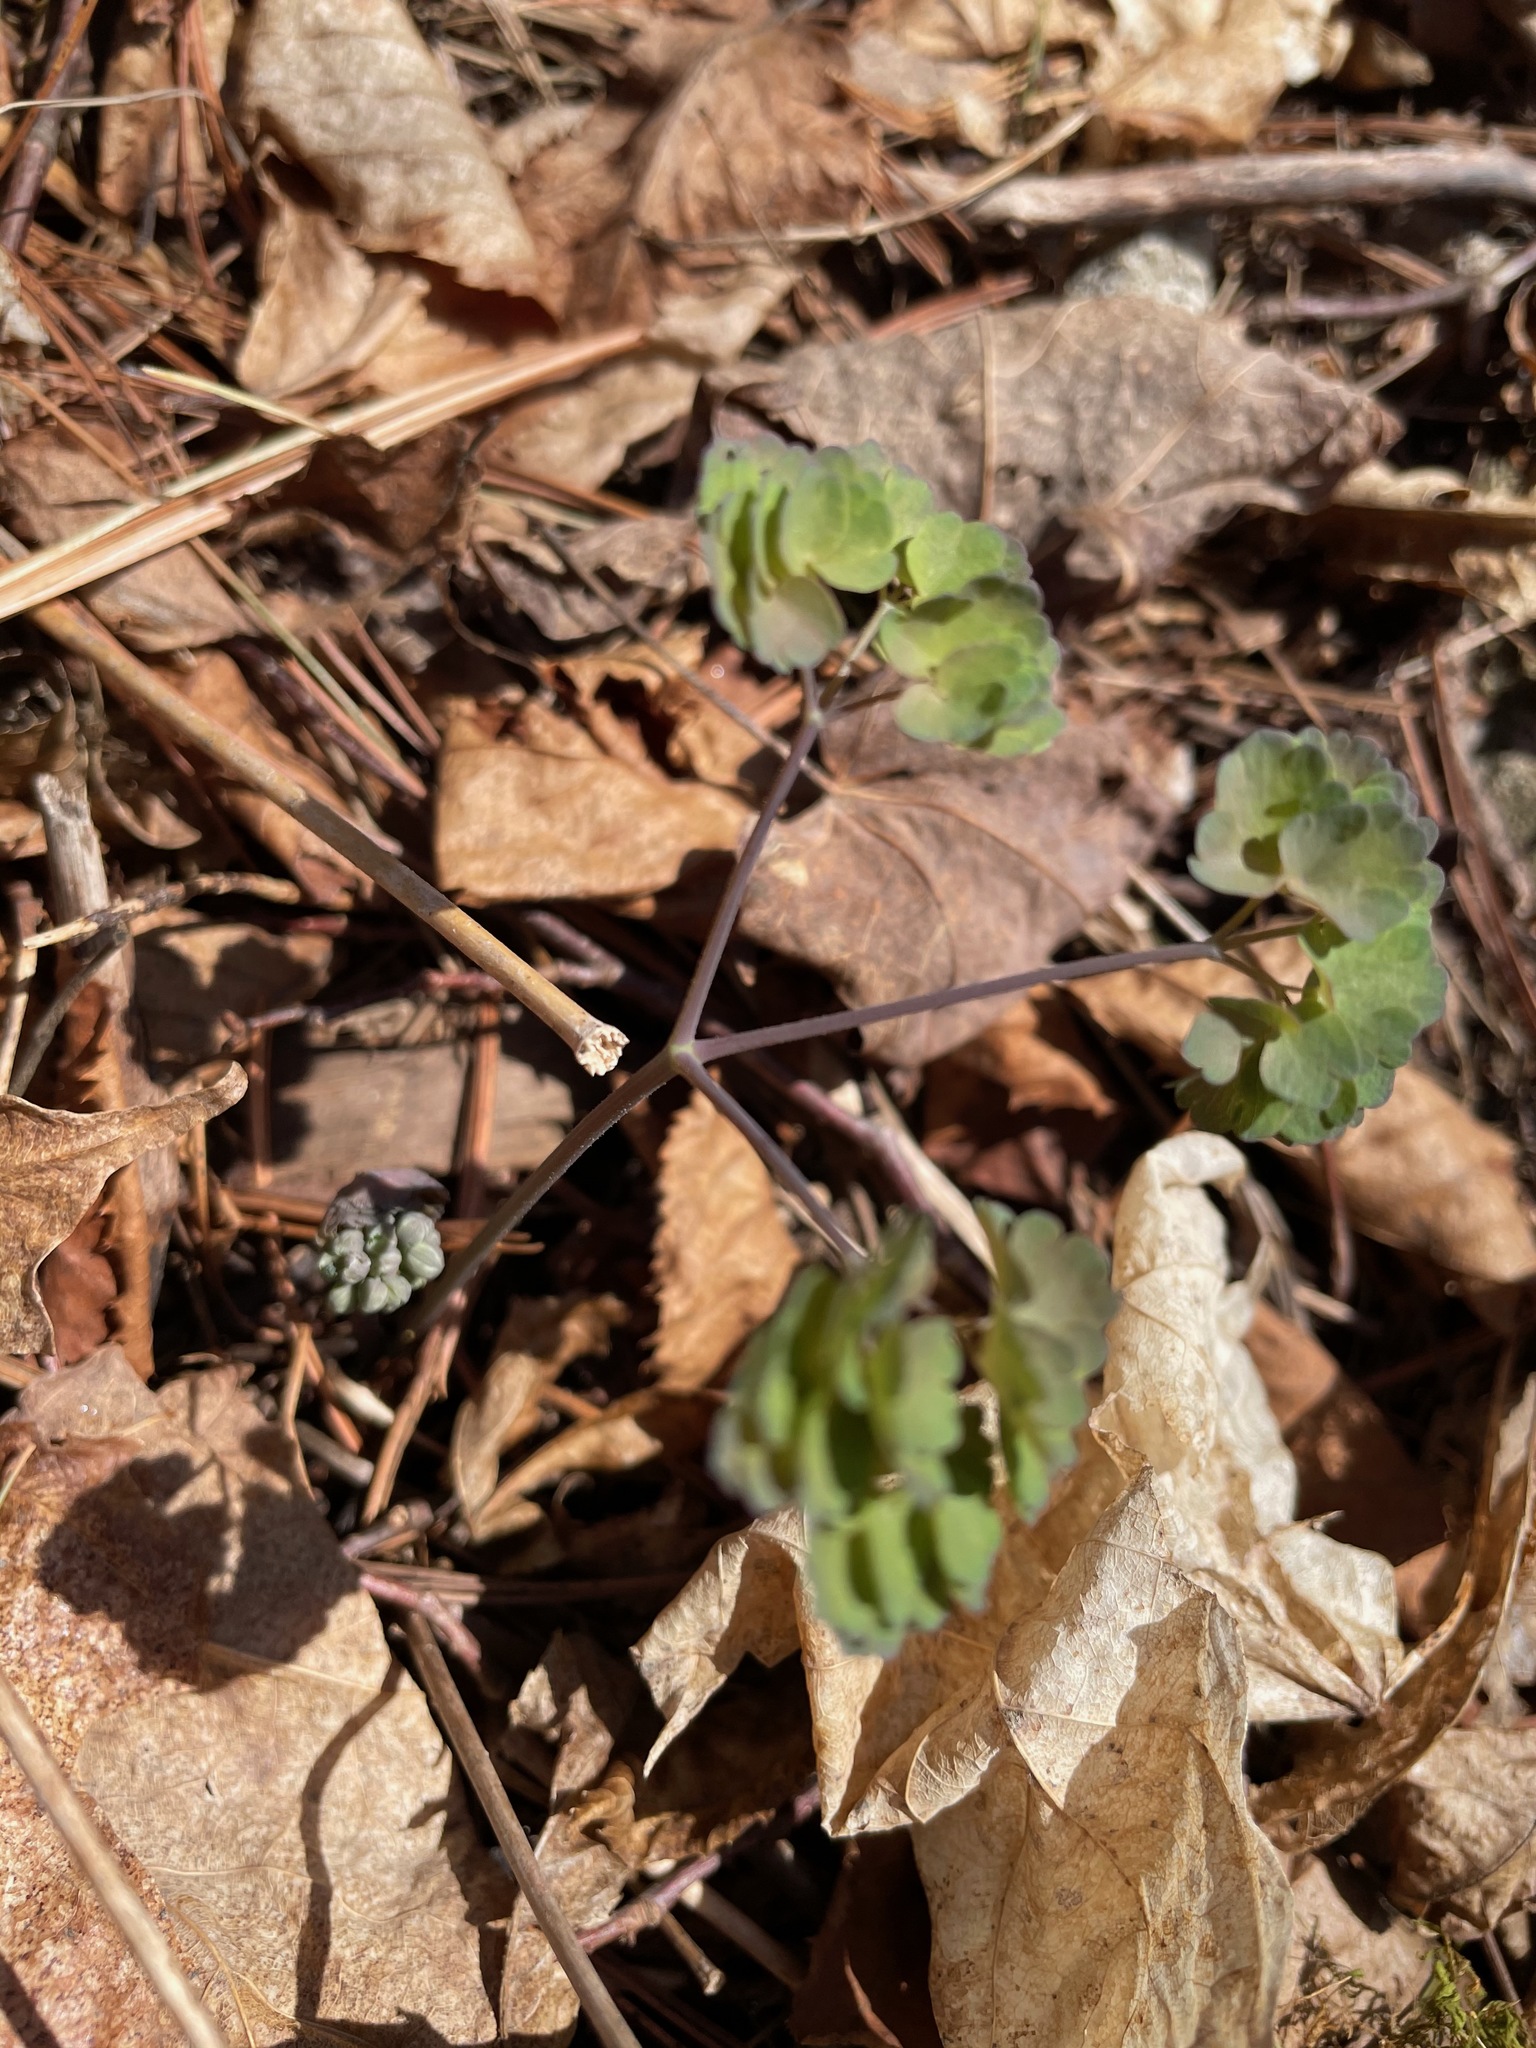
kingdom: Plantae
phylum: Tracheophyta
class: Magnoliopsida
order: Ranunculales
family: Ranunculaceae
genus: Thalictrum
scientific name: Thalictrum dioicum
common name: Early meadow-rue
